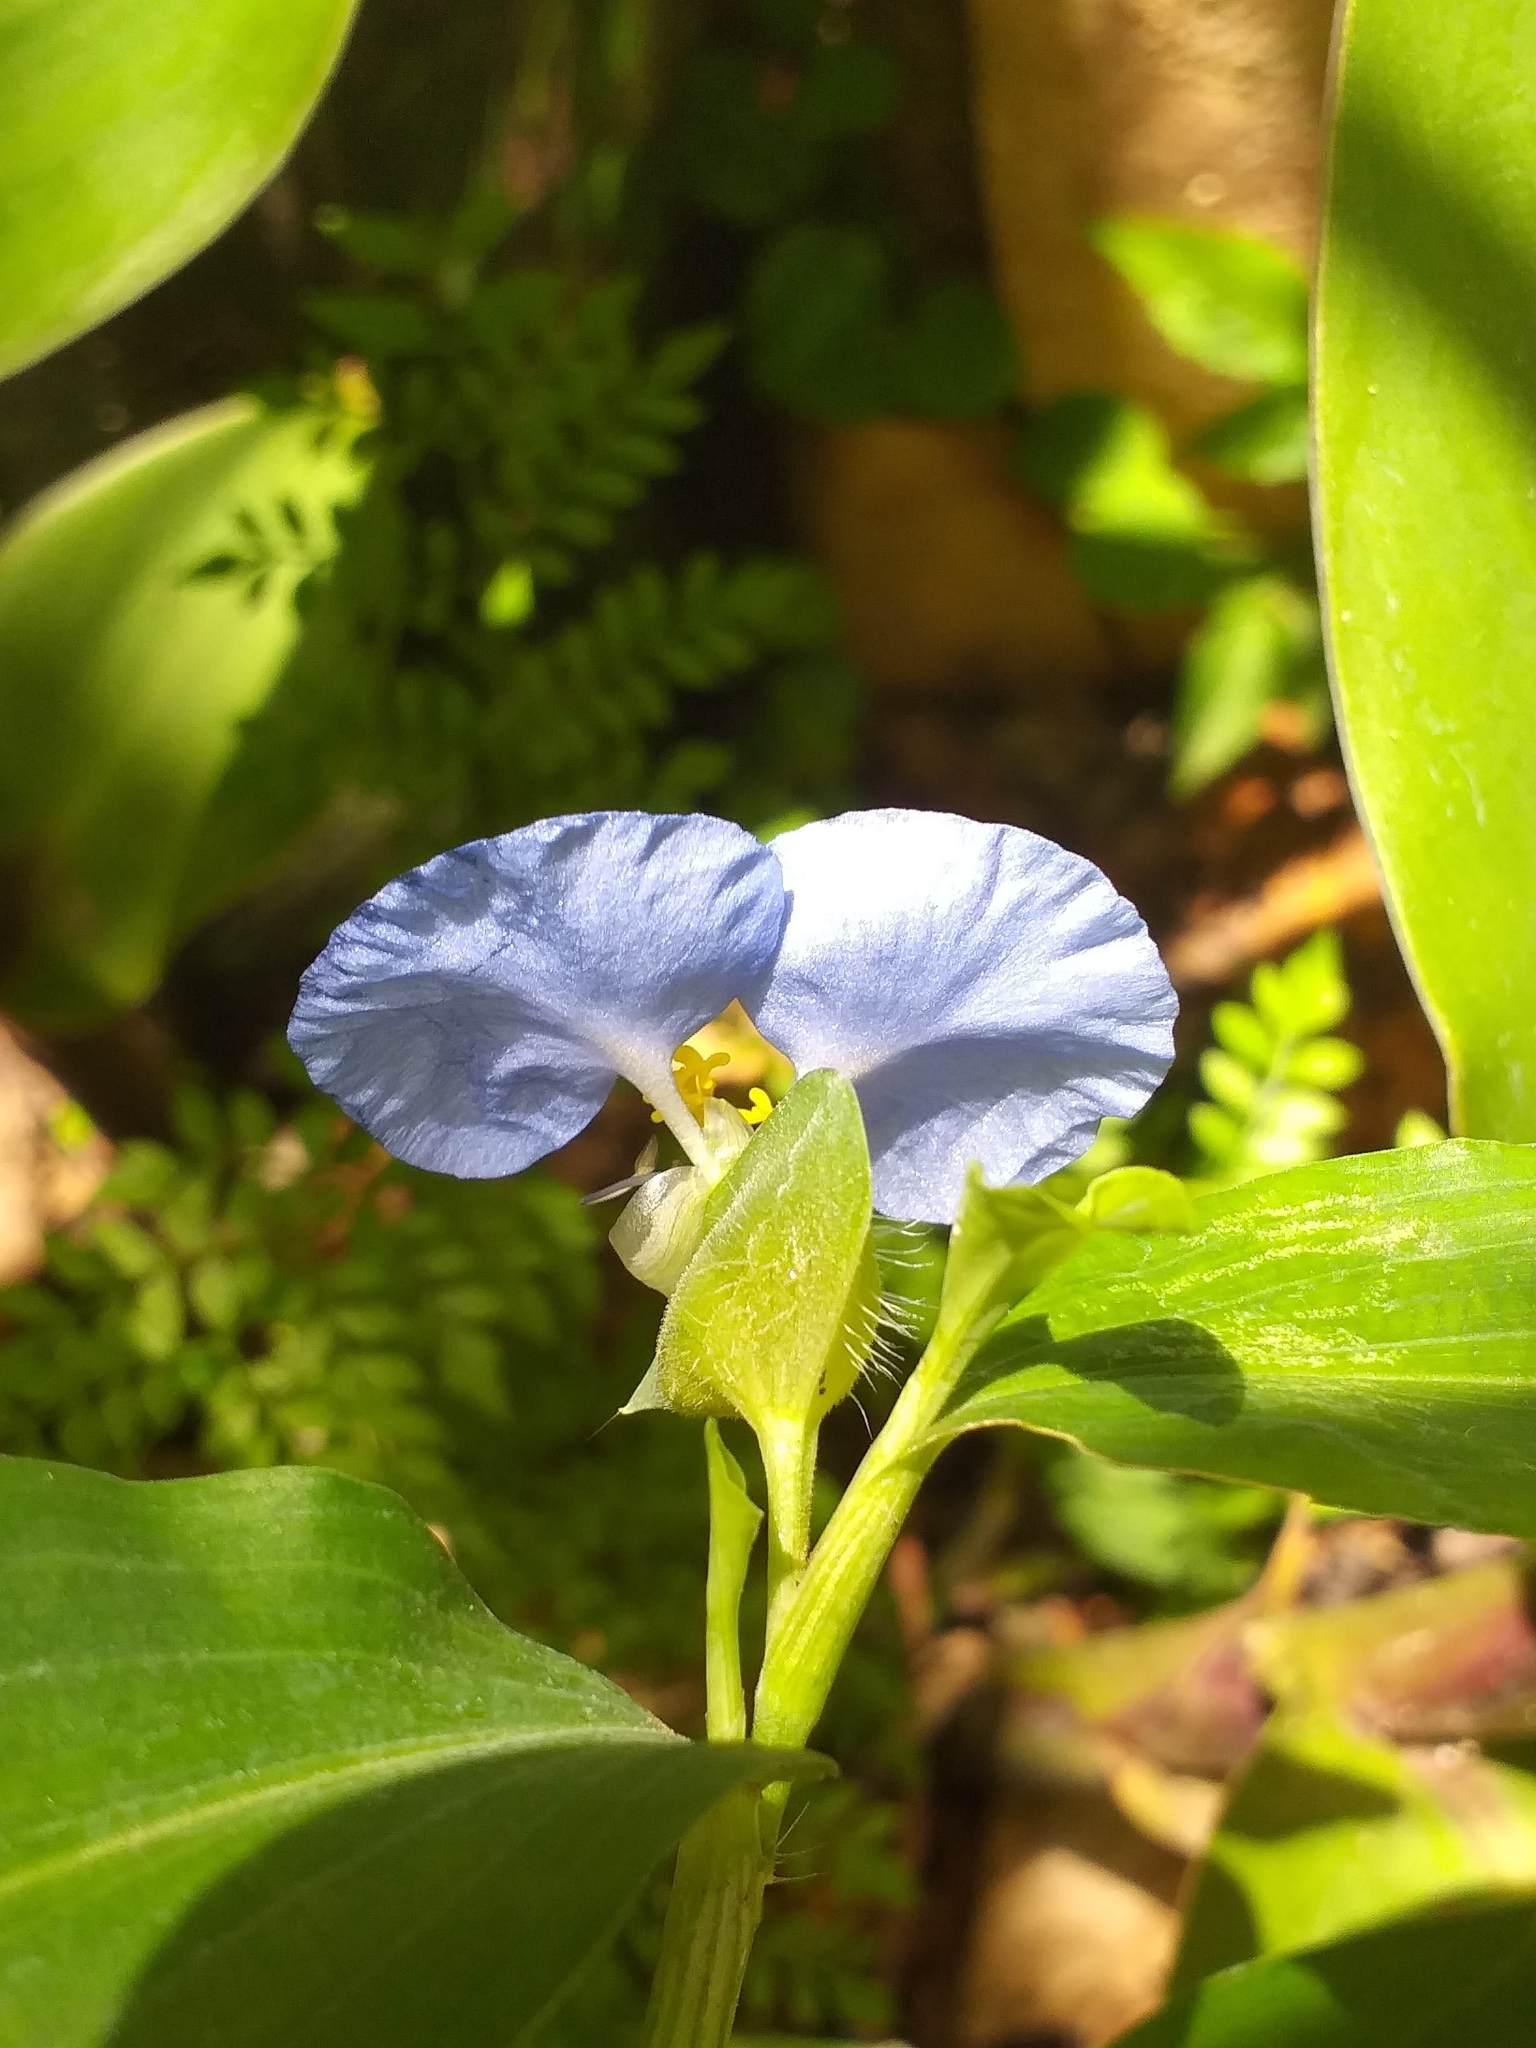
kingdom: Plantae
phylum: Tracheophyta
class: Liliopsida
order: Commelinales
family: Commelinaceae
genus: Commelina
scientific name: Commelina erecta
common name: Blousel blommetjie
